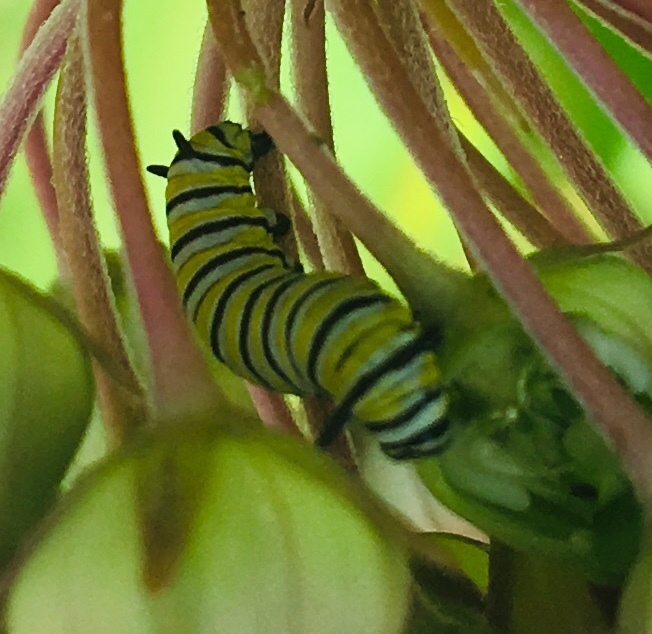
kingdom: Animalia
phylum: Arthropoda
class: Insecta
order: Lepidoptera
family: Nymphalidae
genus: Danaus
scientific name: Danaus plexippus
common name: Monarch
